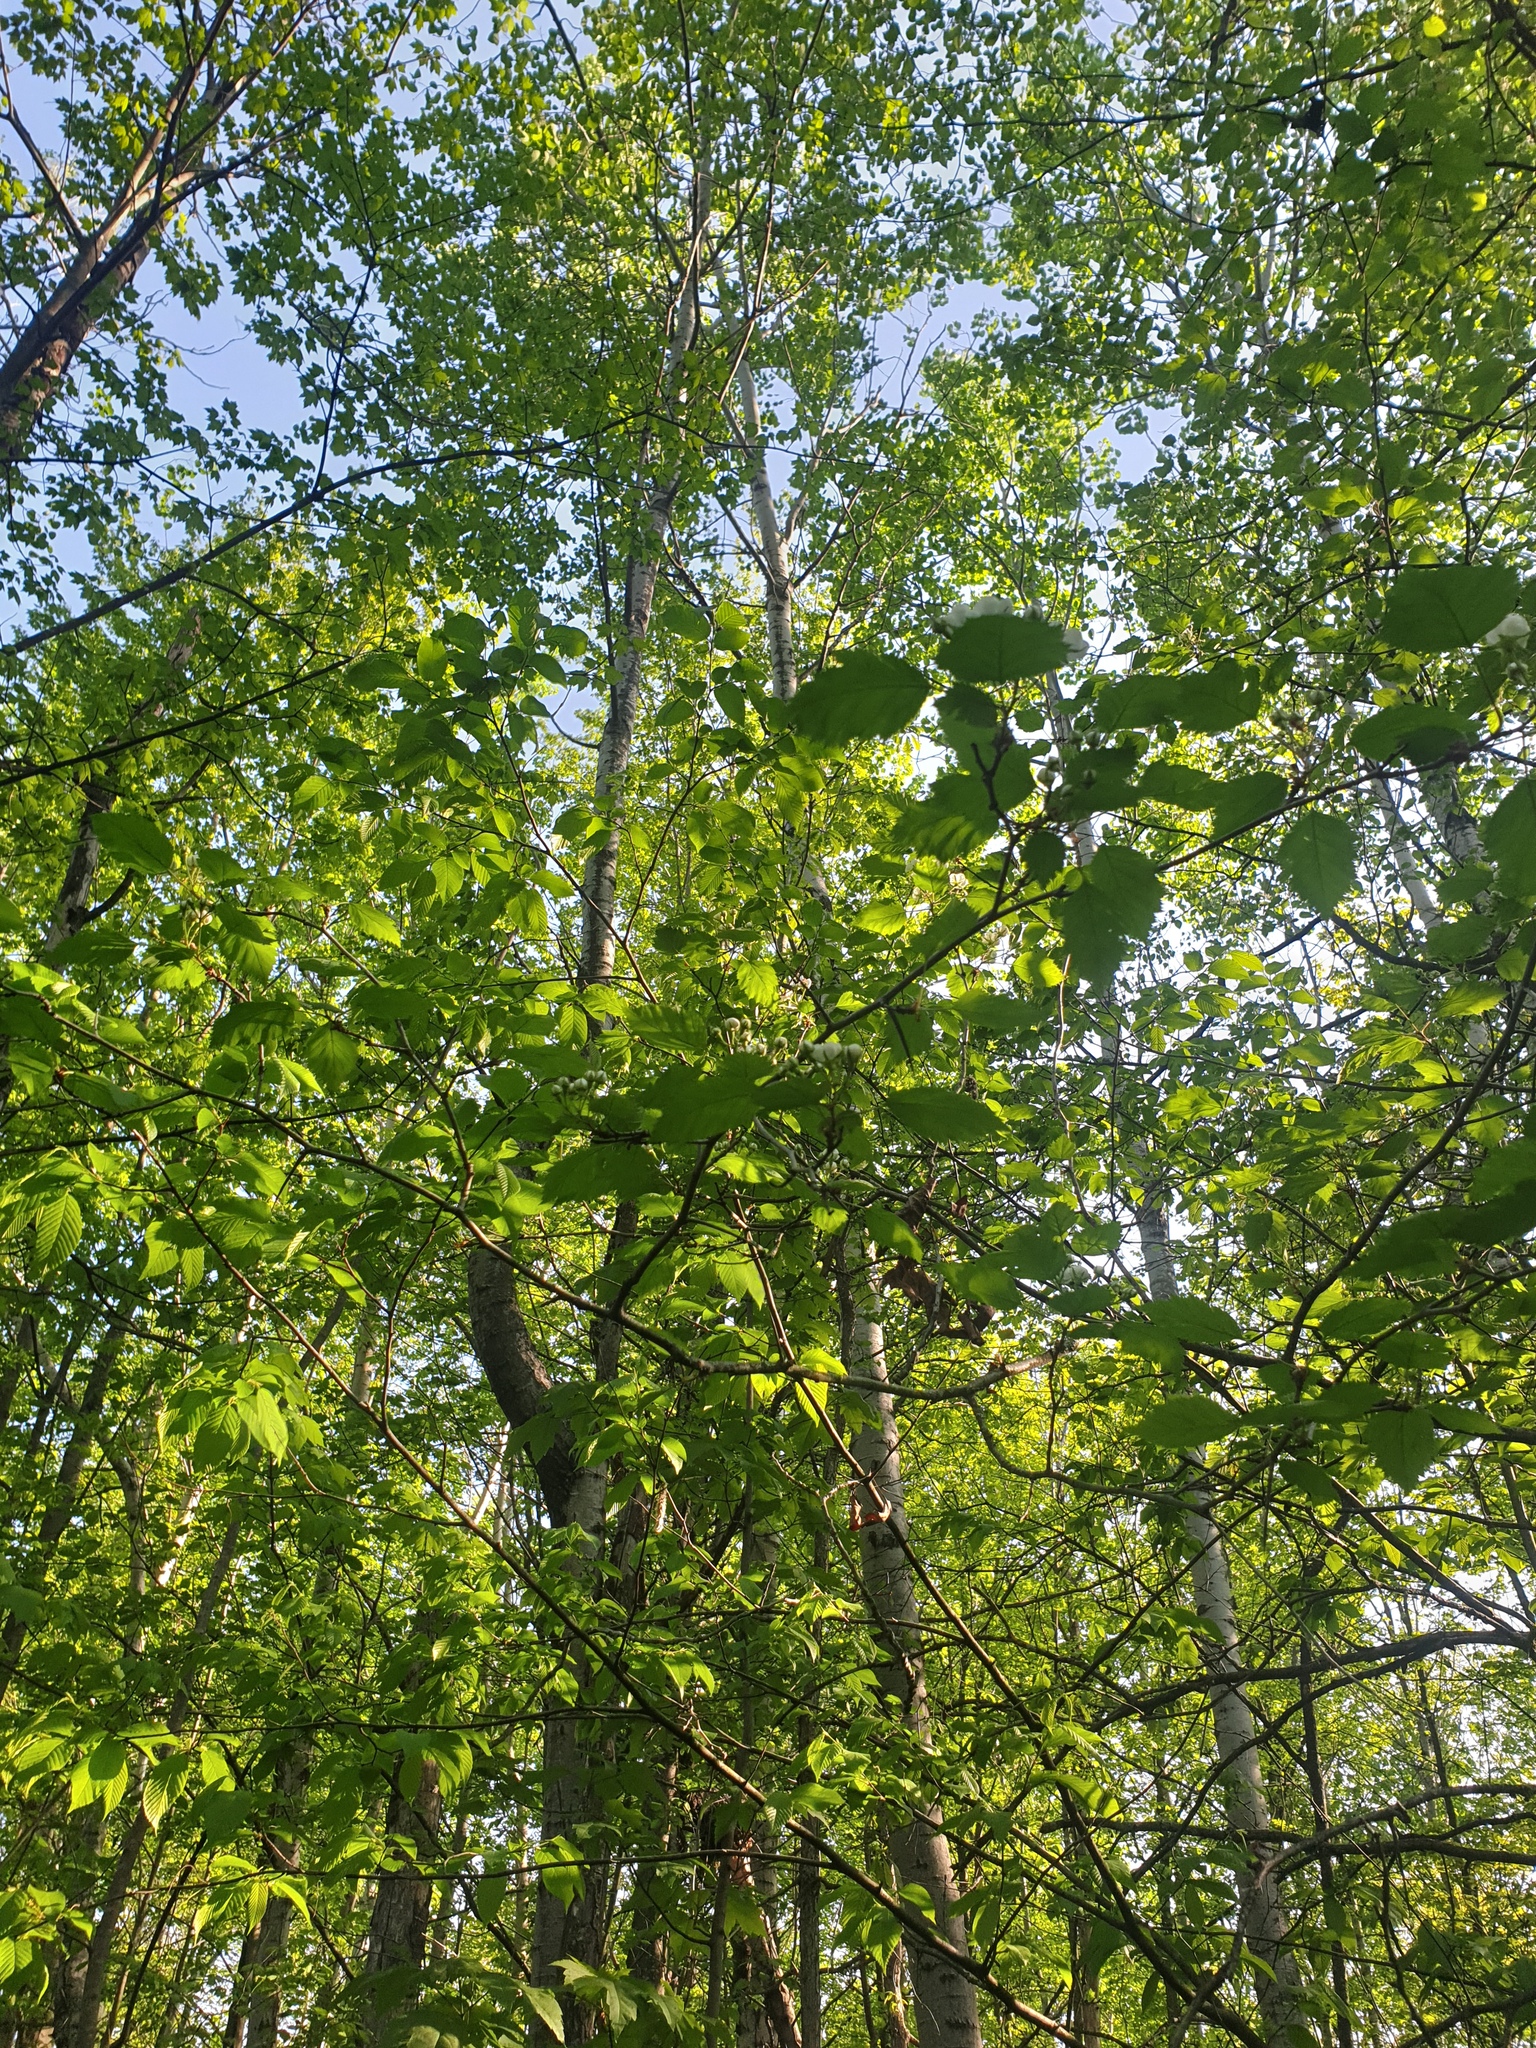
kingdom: Plantae
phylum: Tracheophyta
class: Magnoliopsida
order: Rosales
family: Rosaceae
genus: Crataegus
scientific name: Crataegus holmesiana
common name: Holmes' hawthorn
